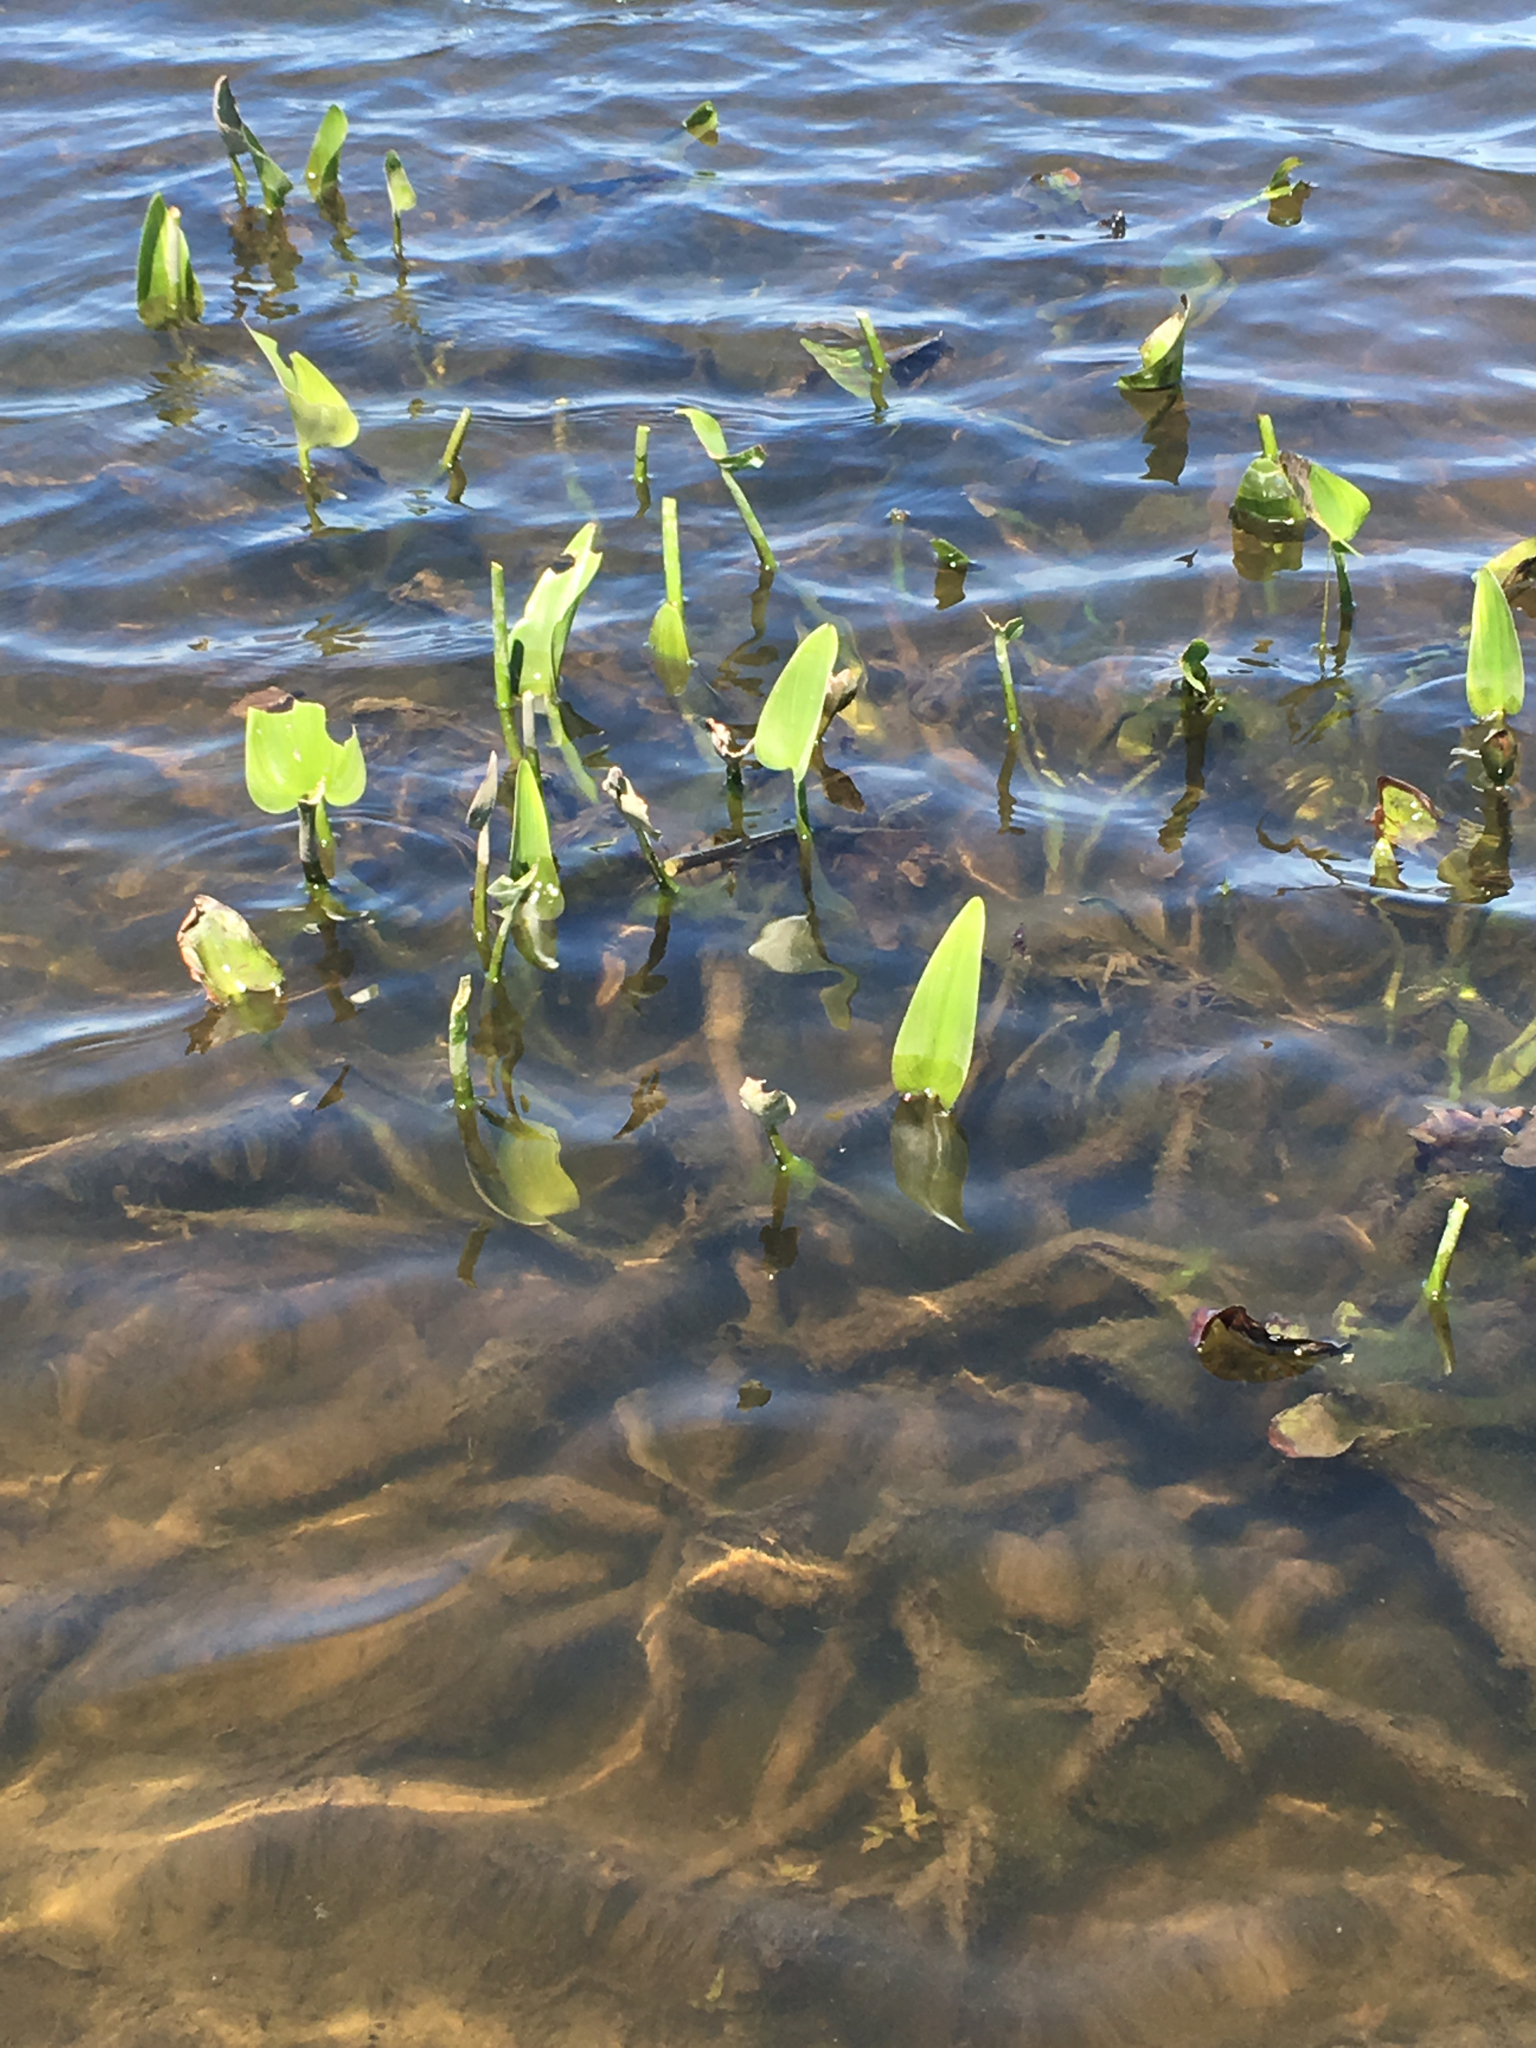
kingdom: Plantae
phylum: Tracheophyta
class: Liliopsida
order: Commelinales
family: Pontederiaceae
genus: Pontederia
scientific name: Pontederia cordata
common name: Pickerelweed
